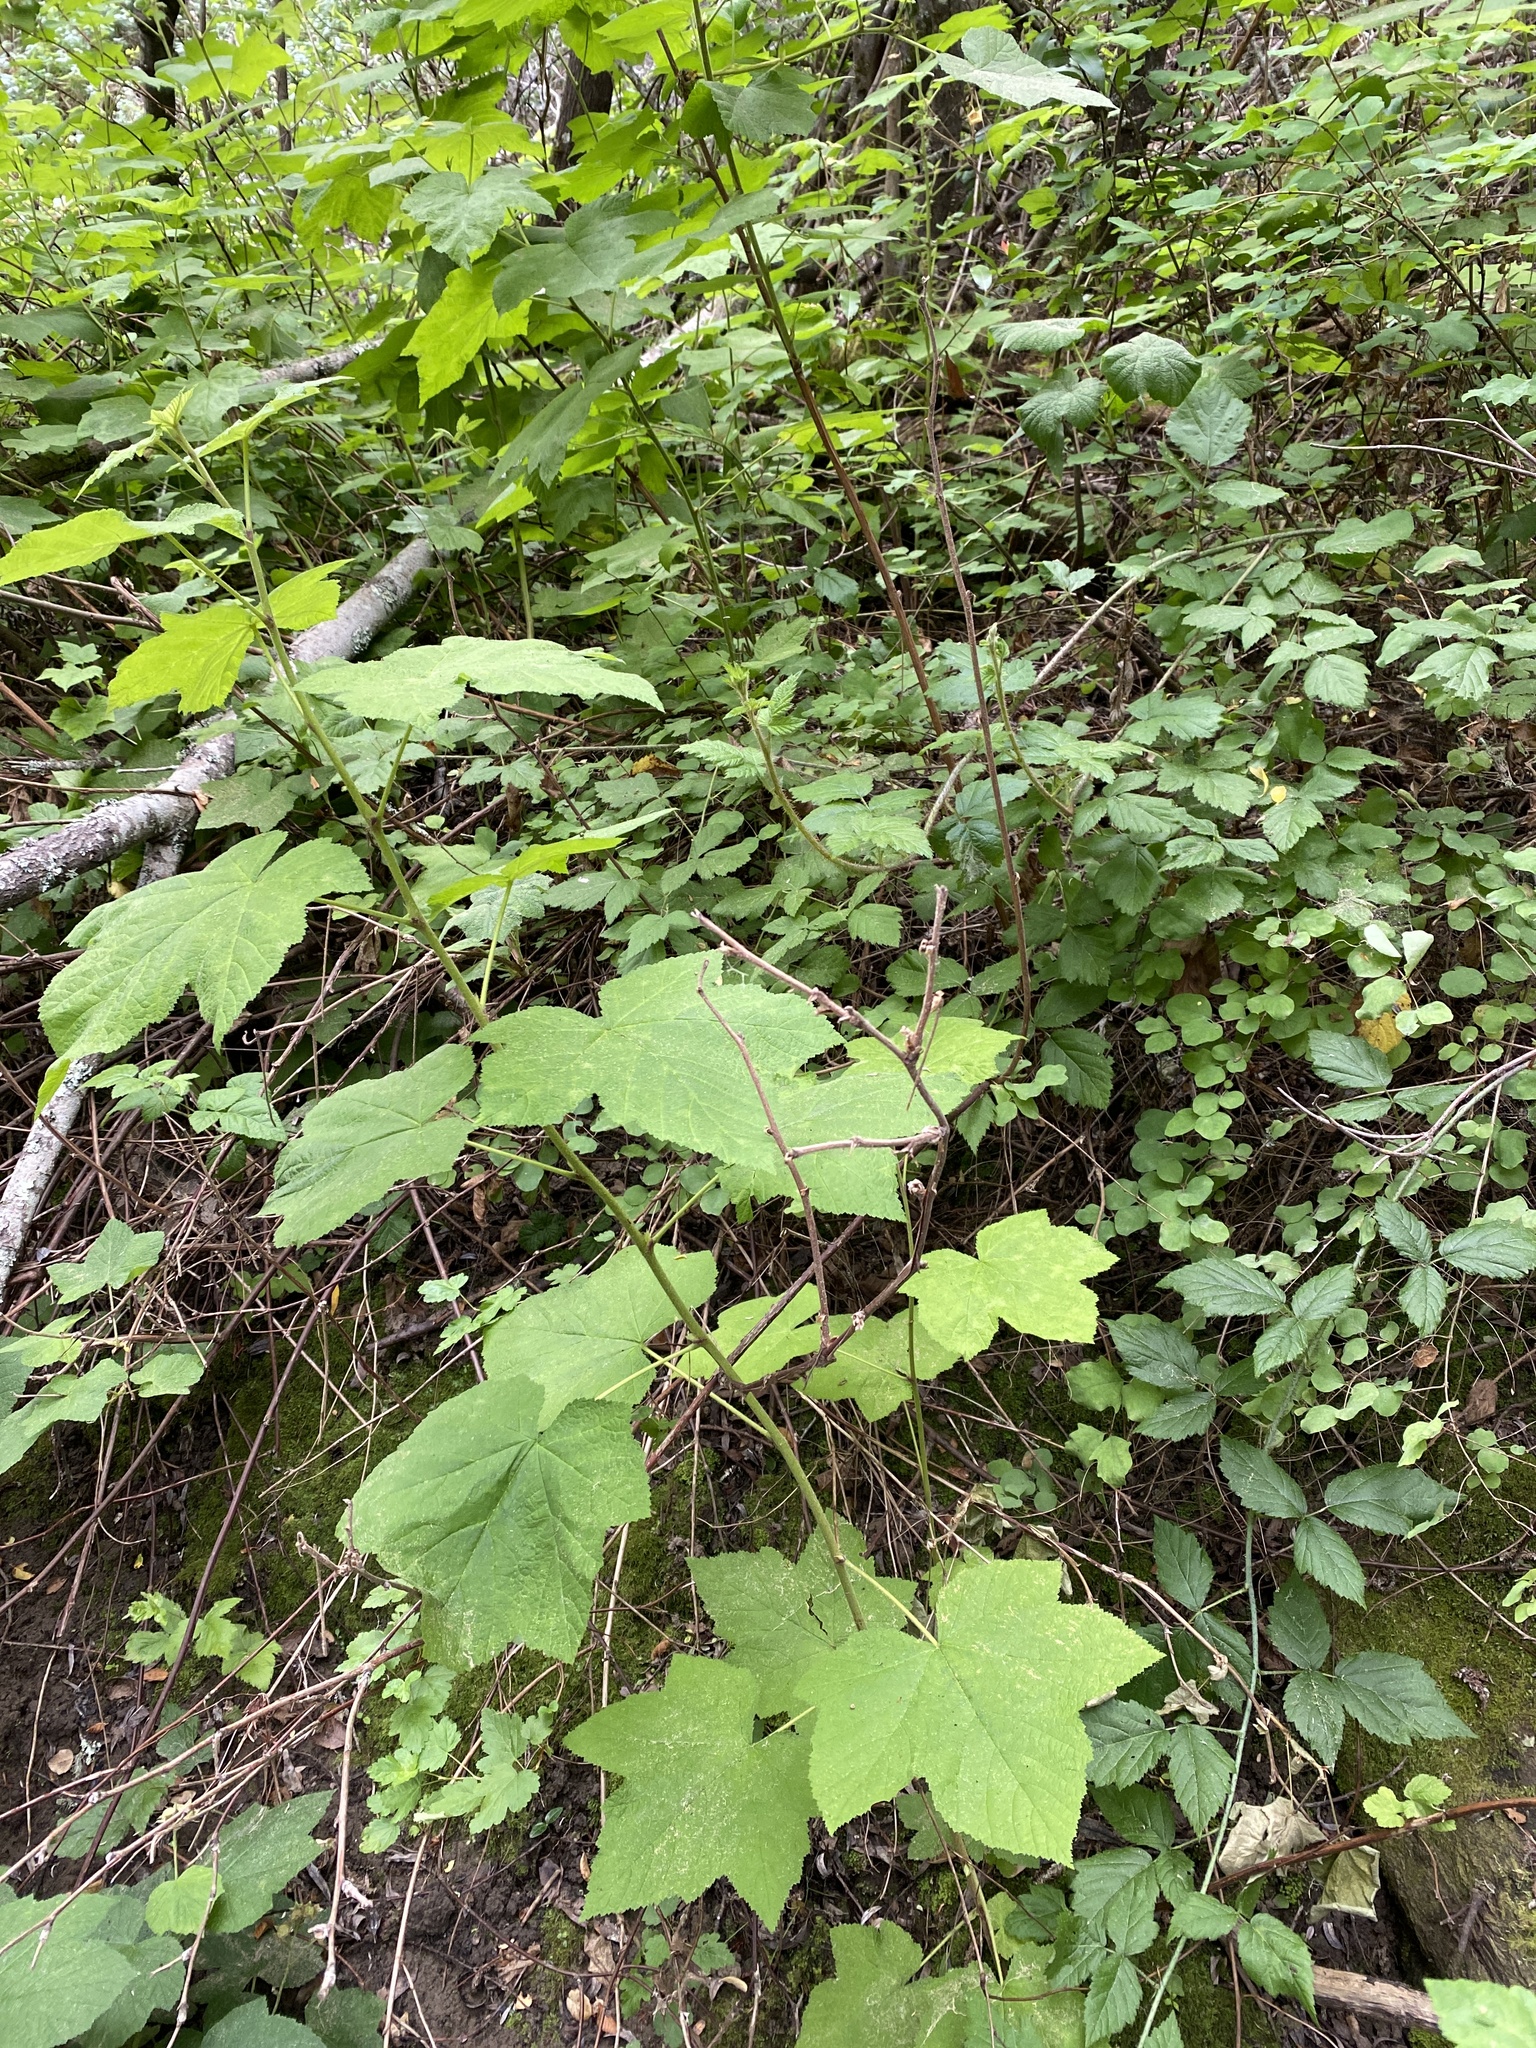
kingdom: Plantae
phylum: Tracheophyta
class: Magnoliopsida
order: Rosales
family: Rosaceae
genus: Rubus
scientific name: Rubus parviflorus
